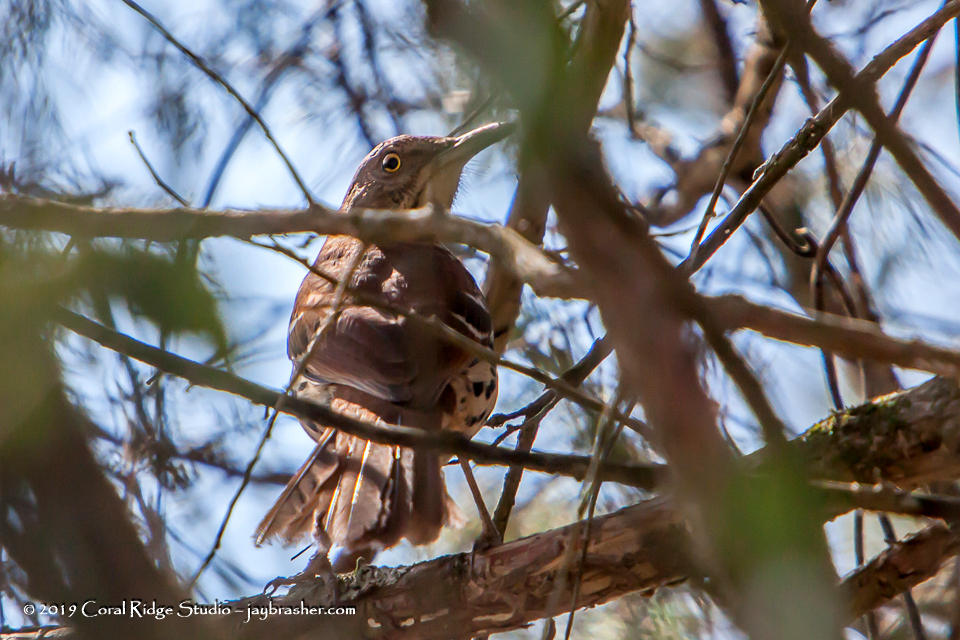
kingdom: Animalia
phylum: Chordata
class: Aves
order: Passeriformes
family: Mimidae
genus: Toxostoma
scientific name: Toxostoma rufum
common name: Brown thrasher
